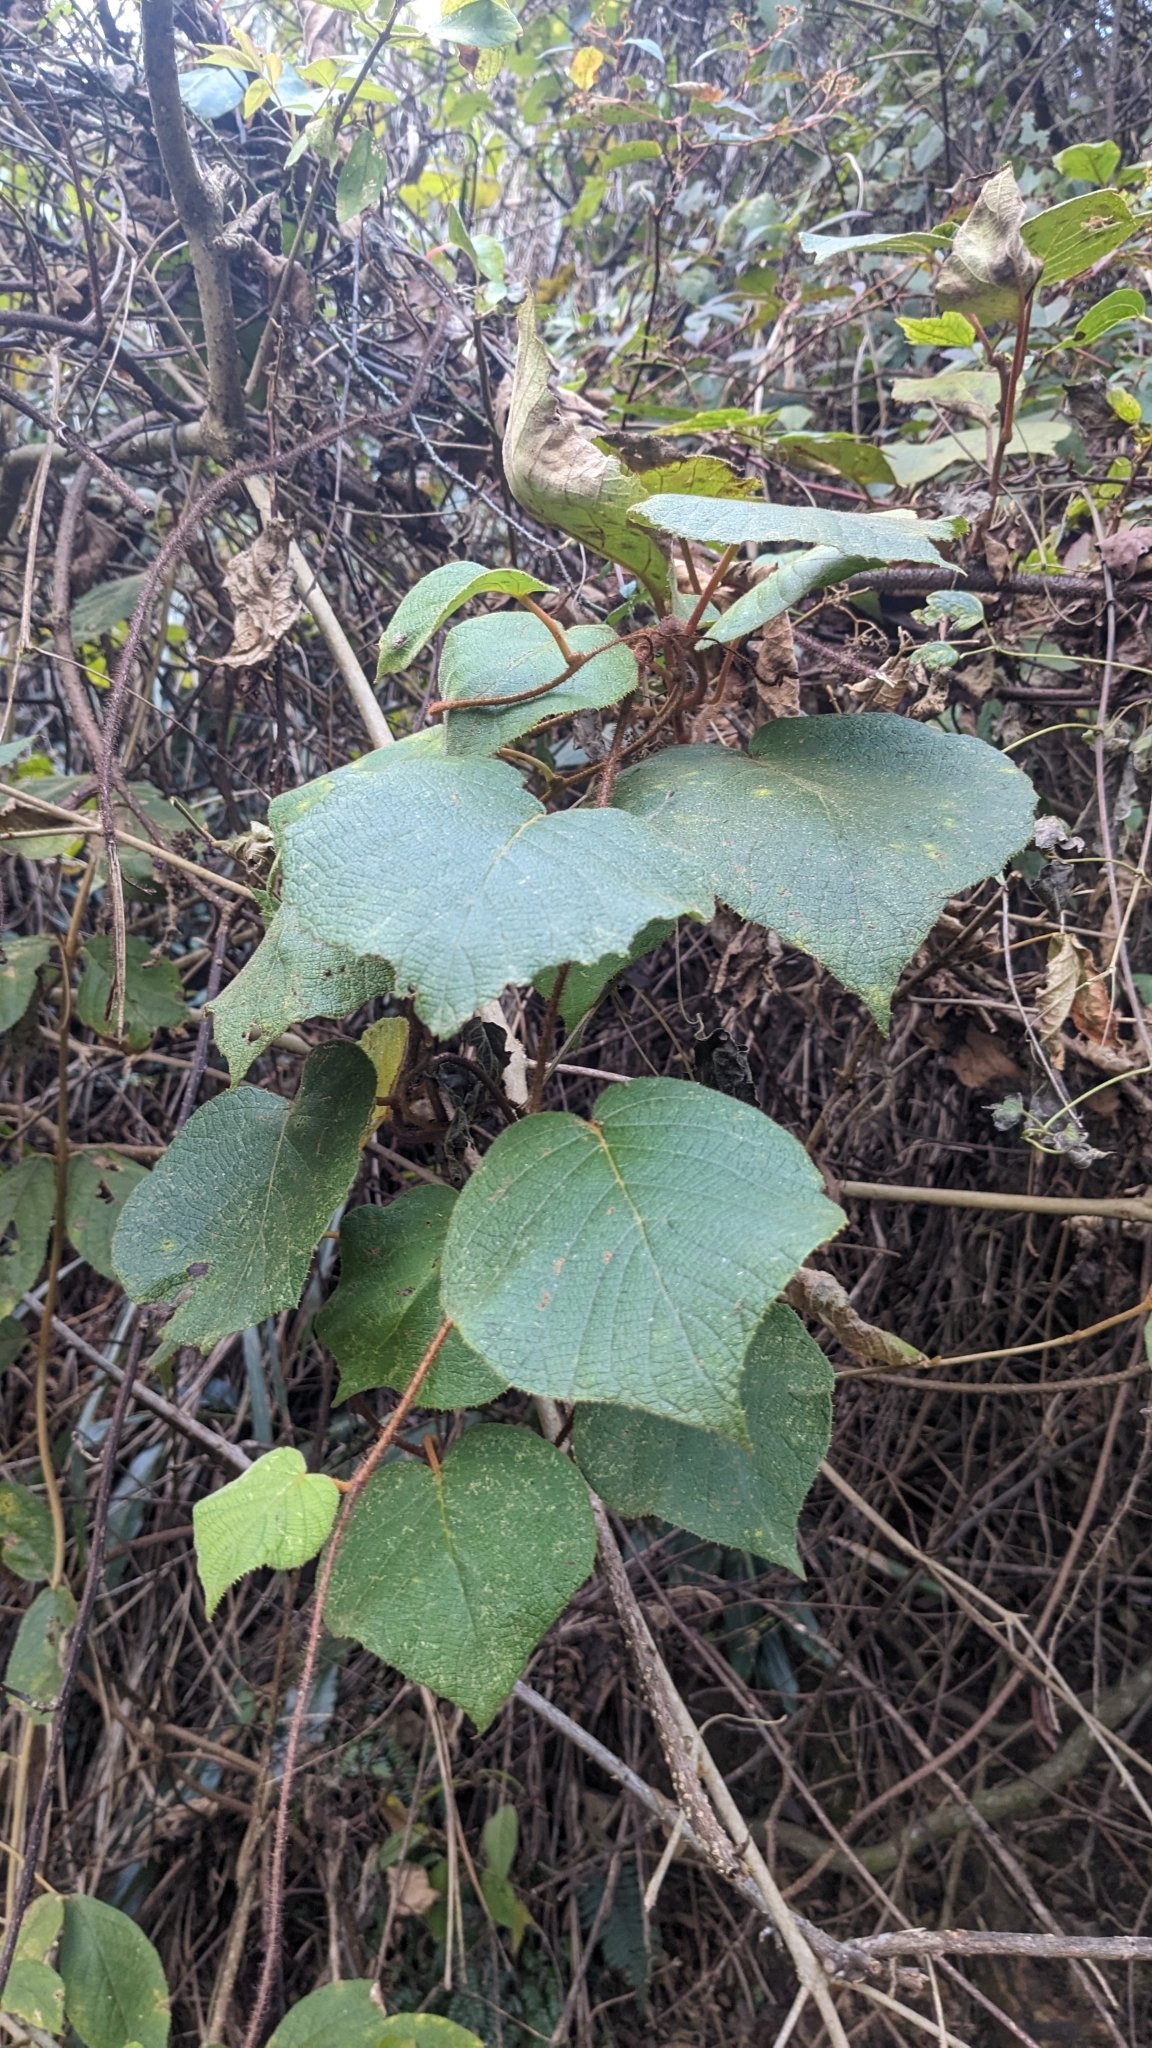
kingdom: Plantae
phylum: Tracheophyta
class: Magnoliopsida
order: Ericales
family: Actinidiaceae
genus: Actinidia
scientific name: Actinidia chinensis
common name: Kiwi
